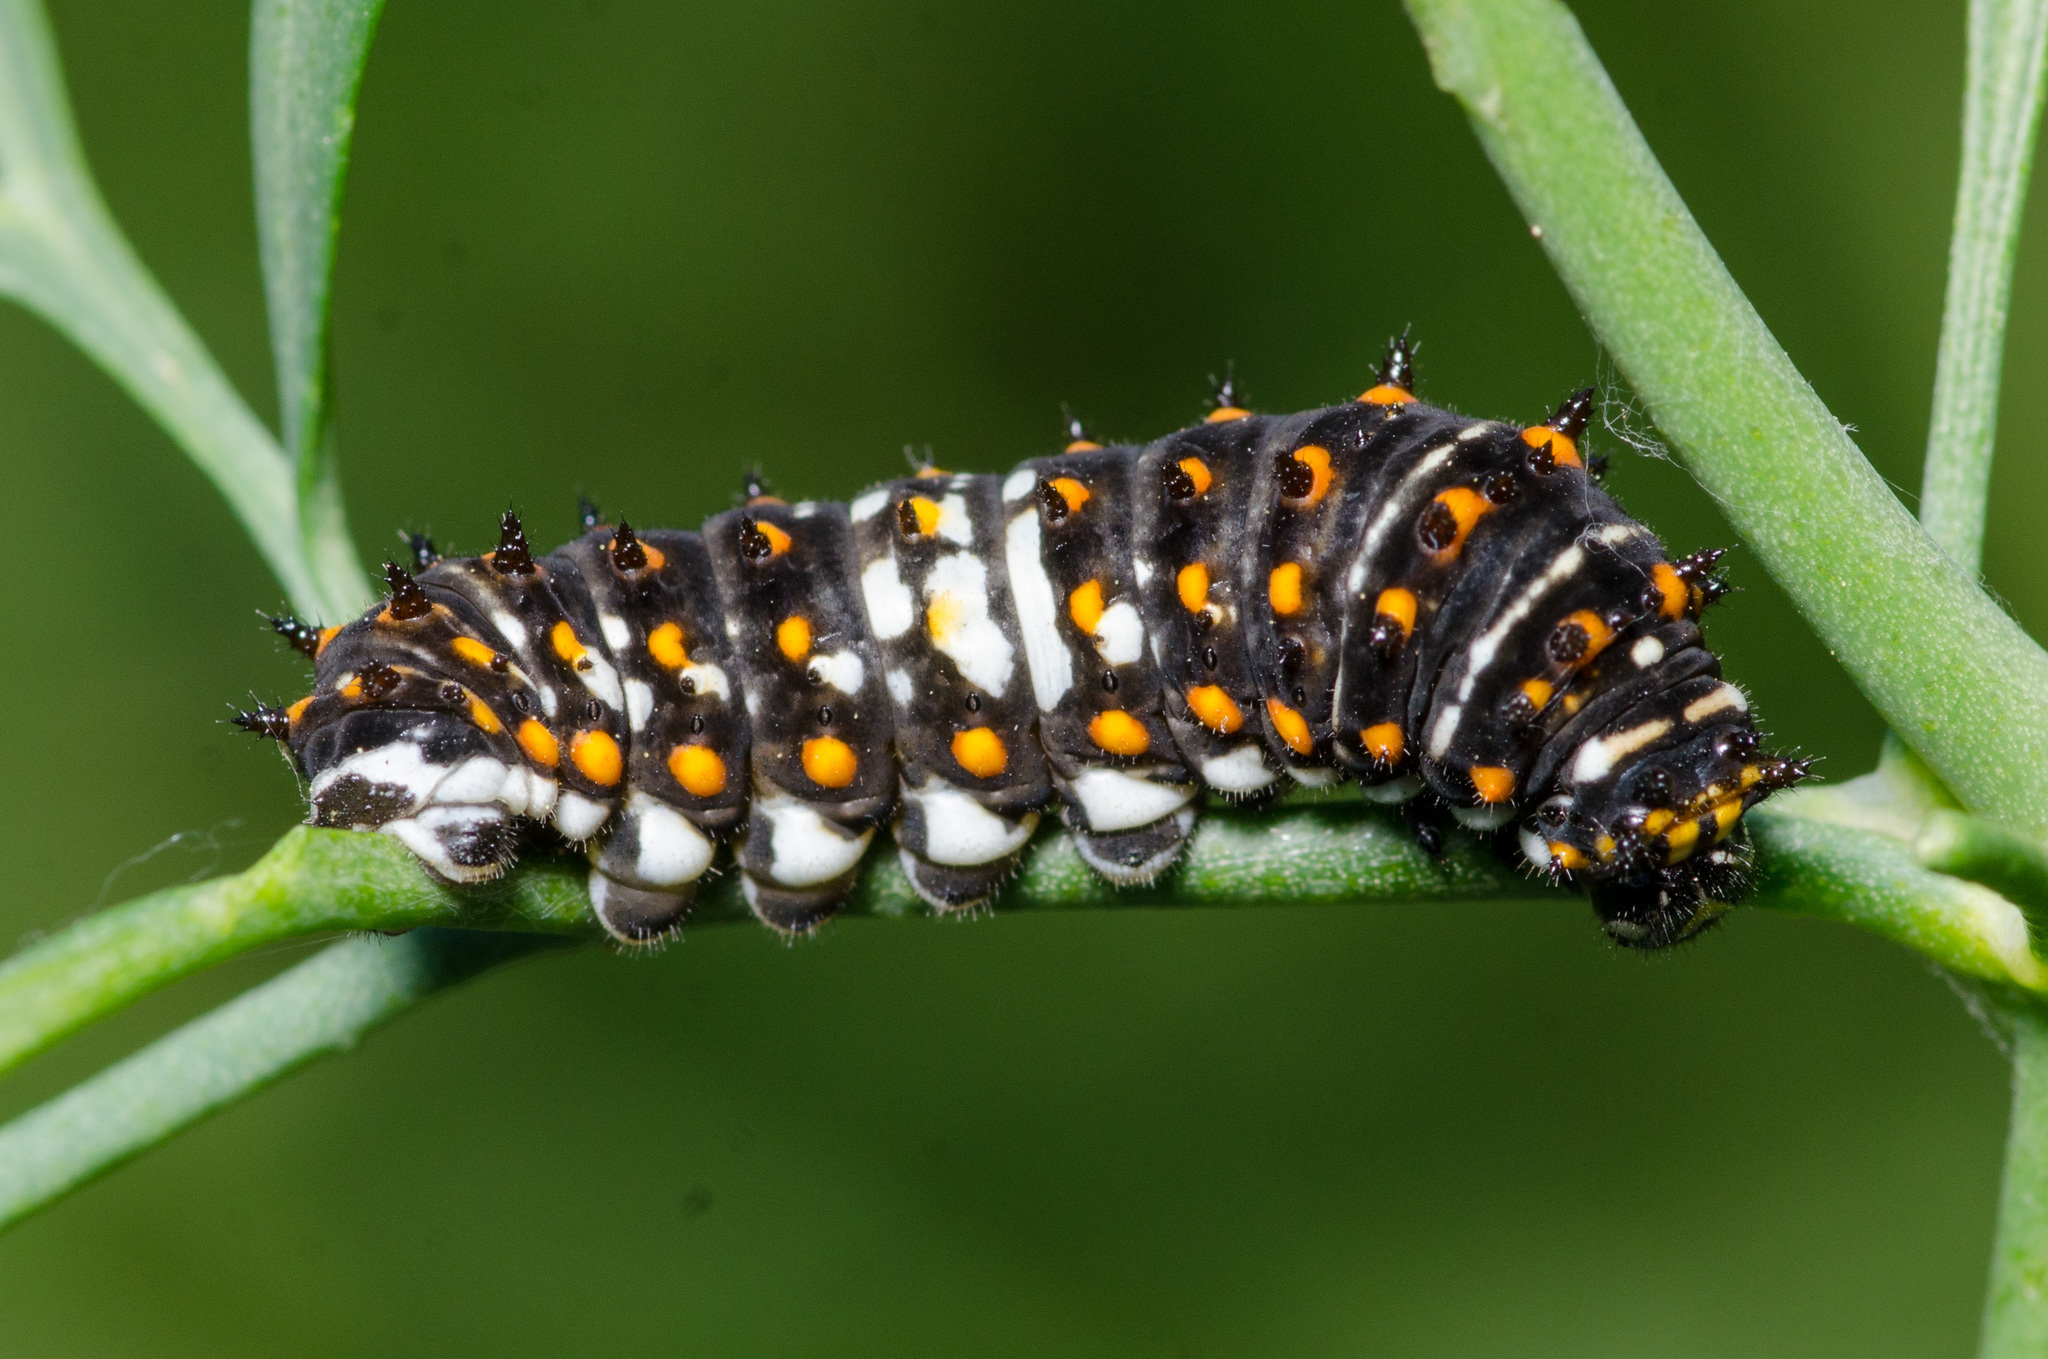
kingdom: Animalia
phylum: Arthropoda
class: Insecta
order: Lepidoptera
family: Papilionidae
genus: Papilio
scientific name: Papilio polyxenes
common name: Black swallowtail
